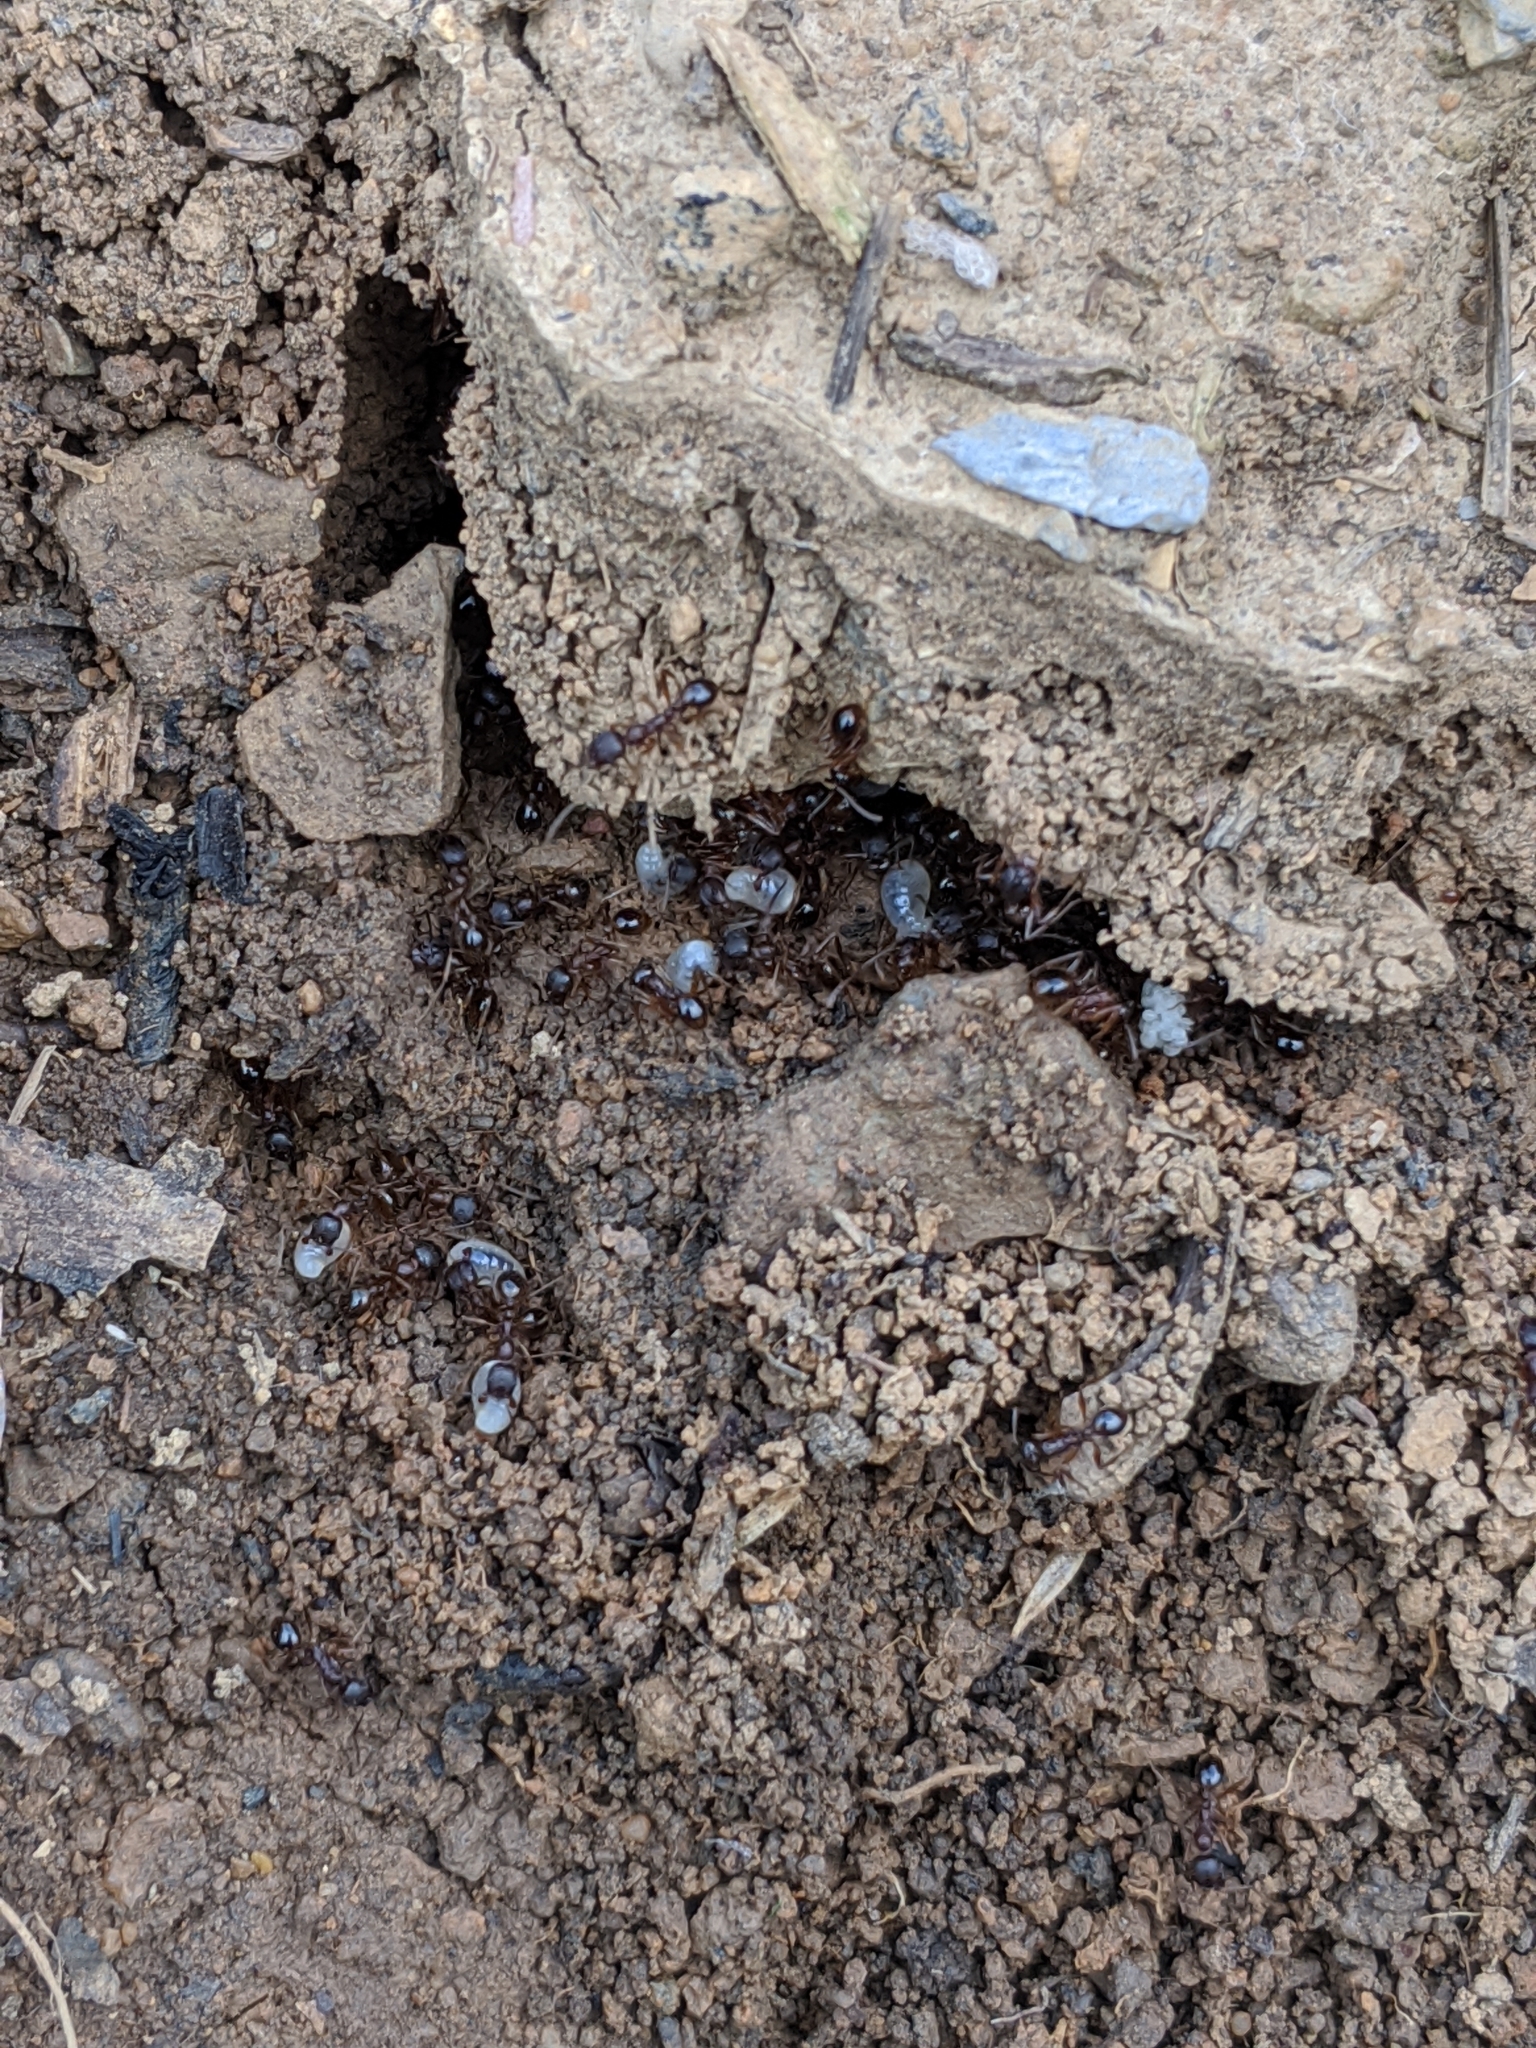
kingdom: Animalia
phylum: Arthropoda
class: Insecta
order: Hymenoptera
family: Formicidae
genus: Aphaenogaster
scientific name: Aphaenogaster
